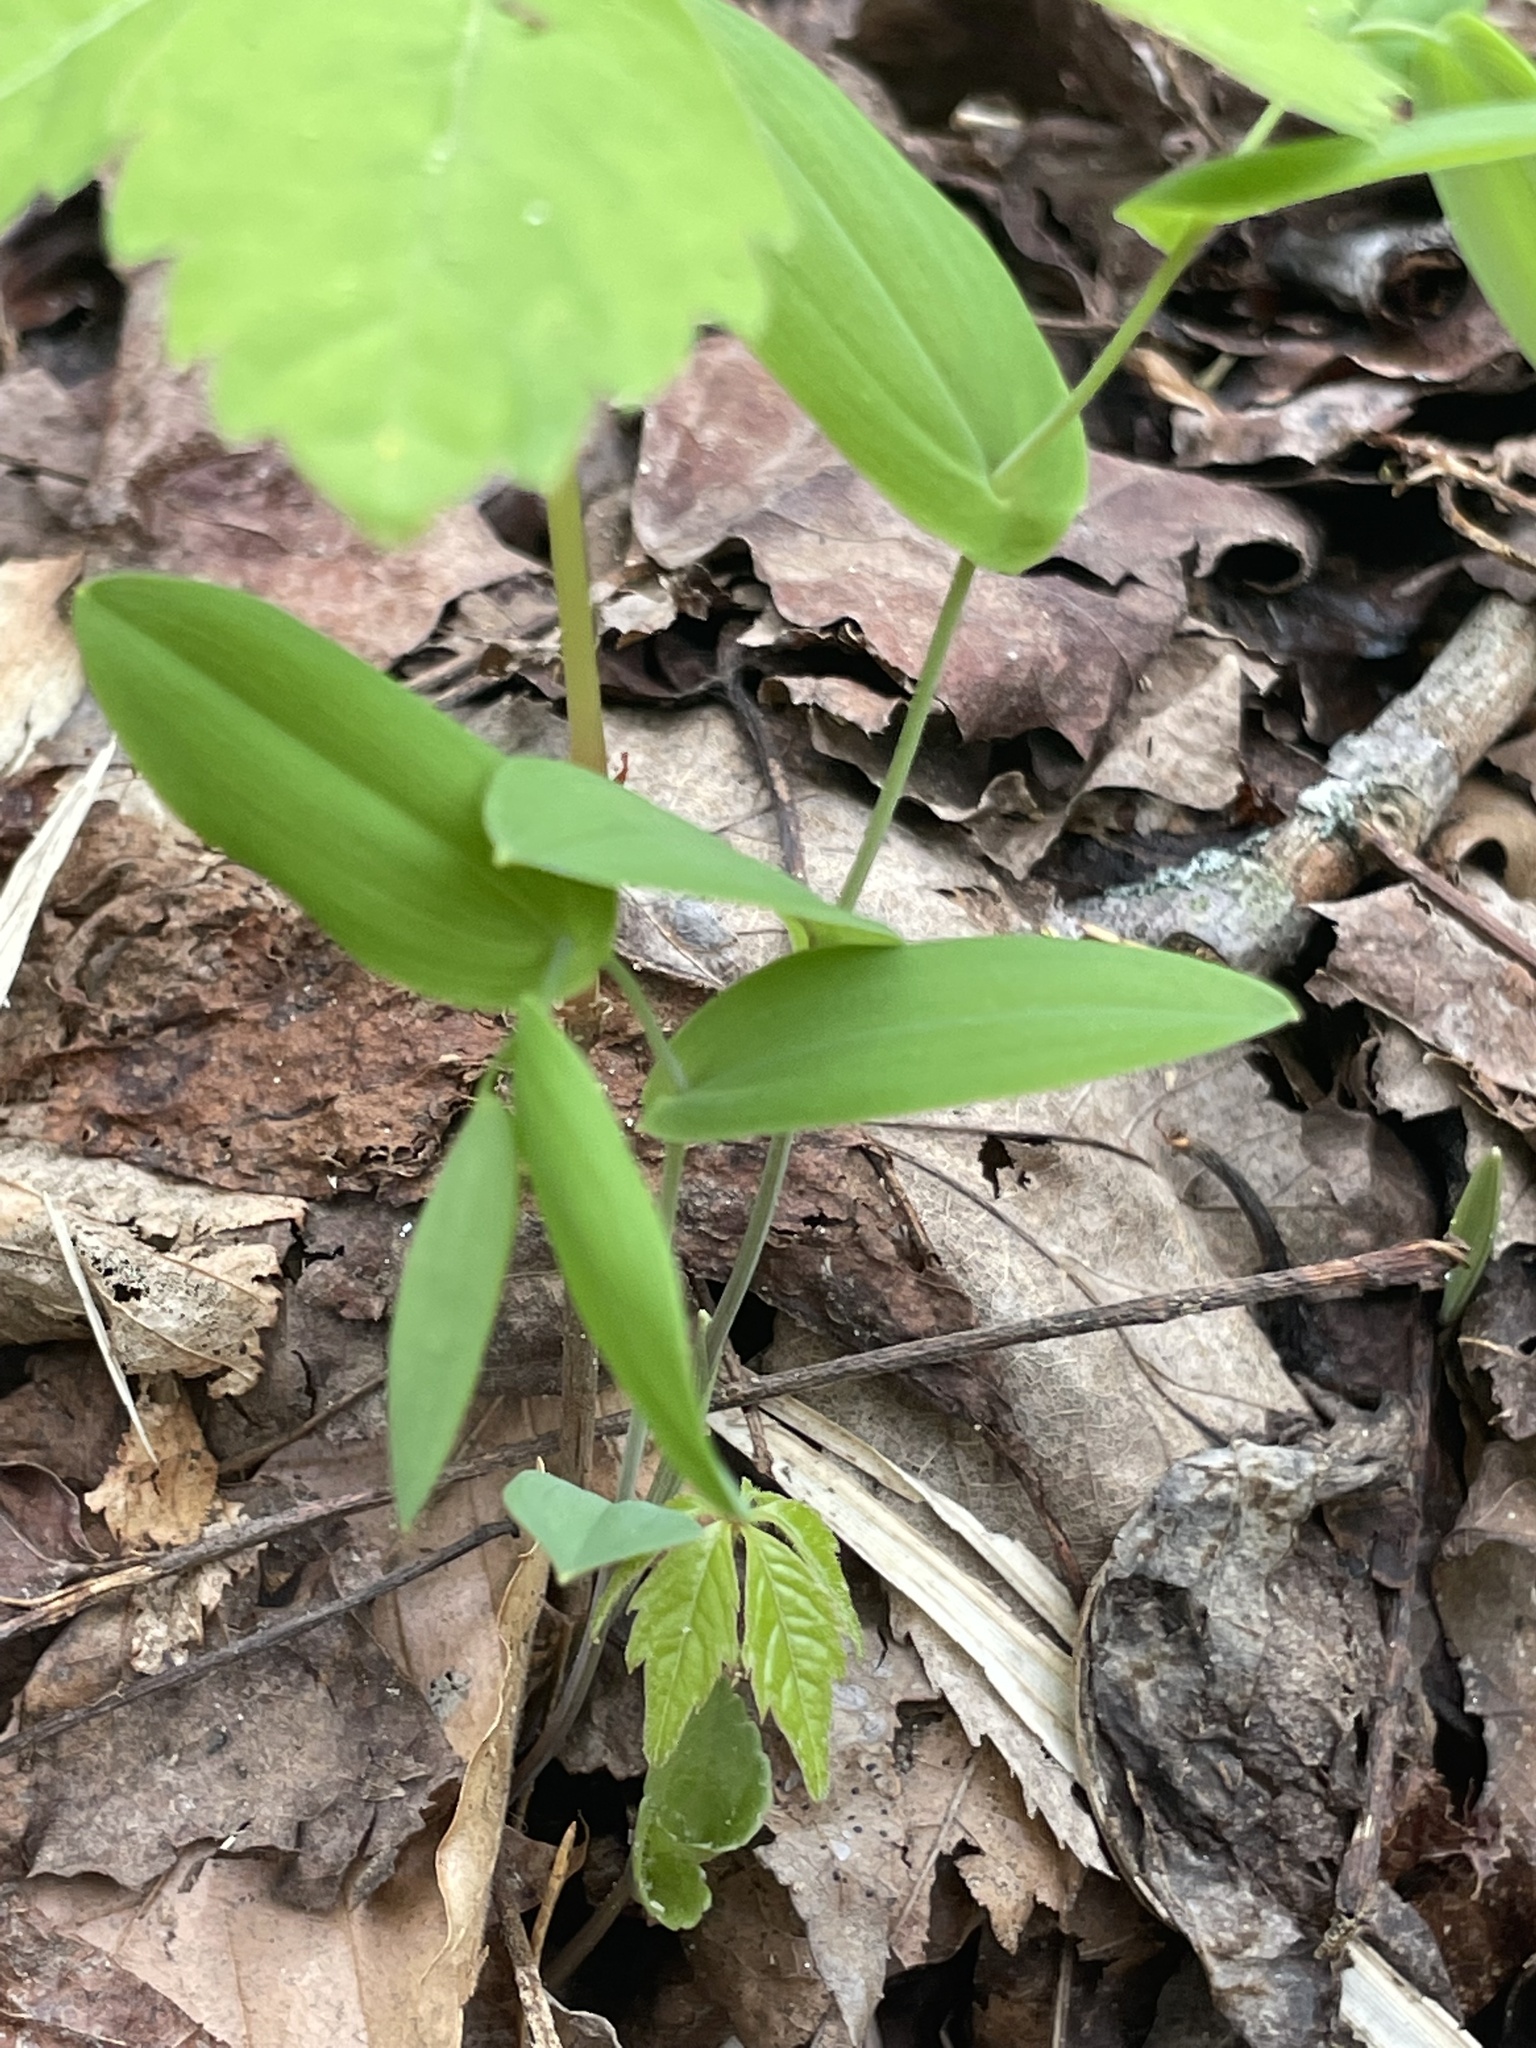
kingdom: Plantae
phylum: Tracheophyta
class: Liliopsida
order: Liliales
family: Colchicaceae
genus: Uvularia
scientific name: Uvularia perfoliata
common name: Perfoliate bellwort
